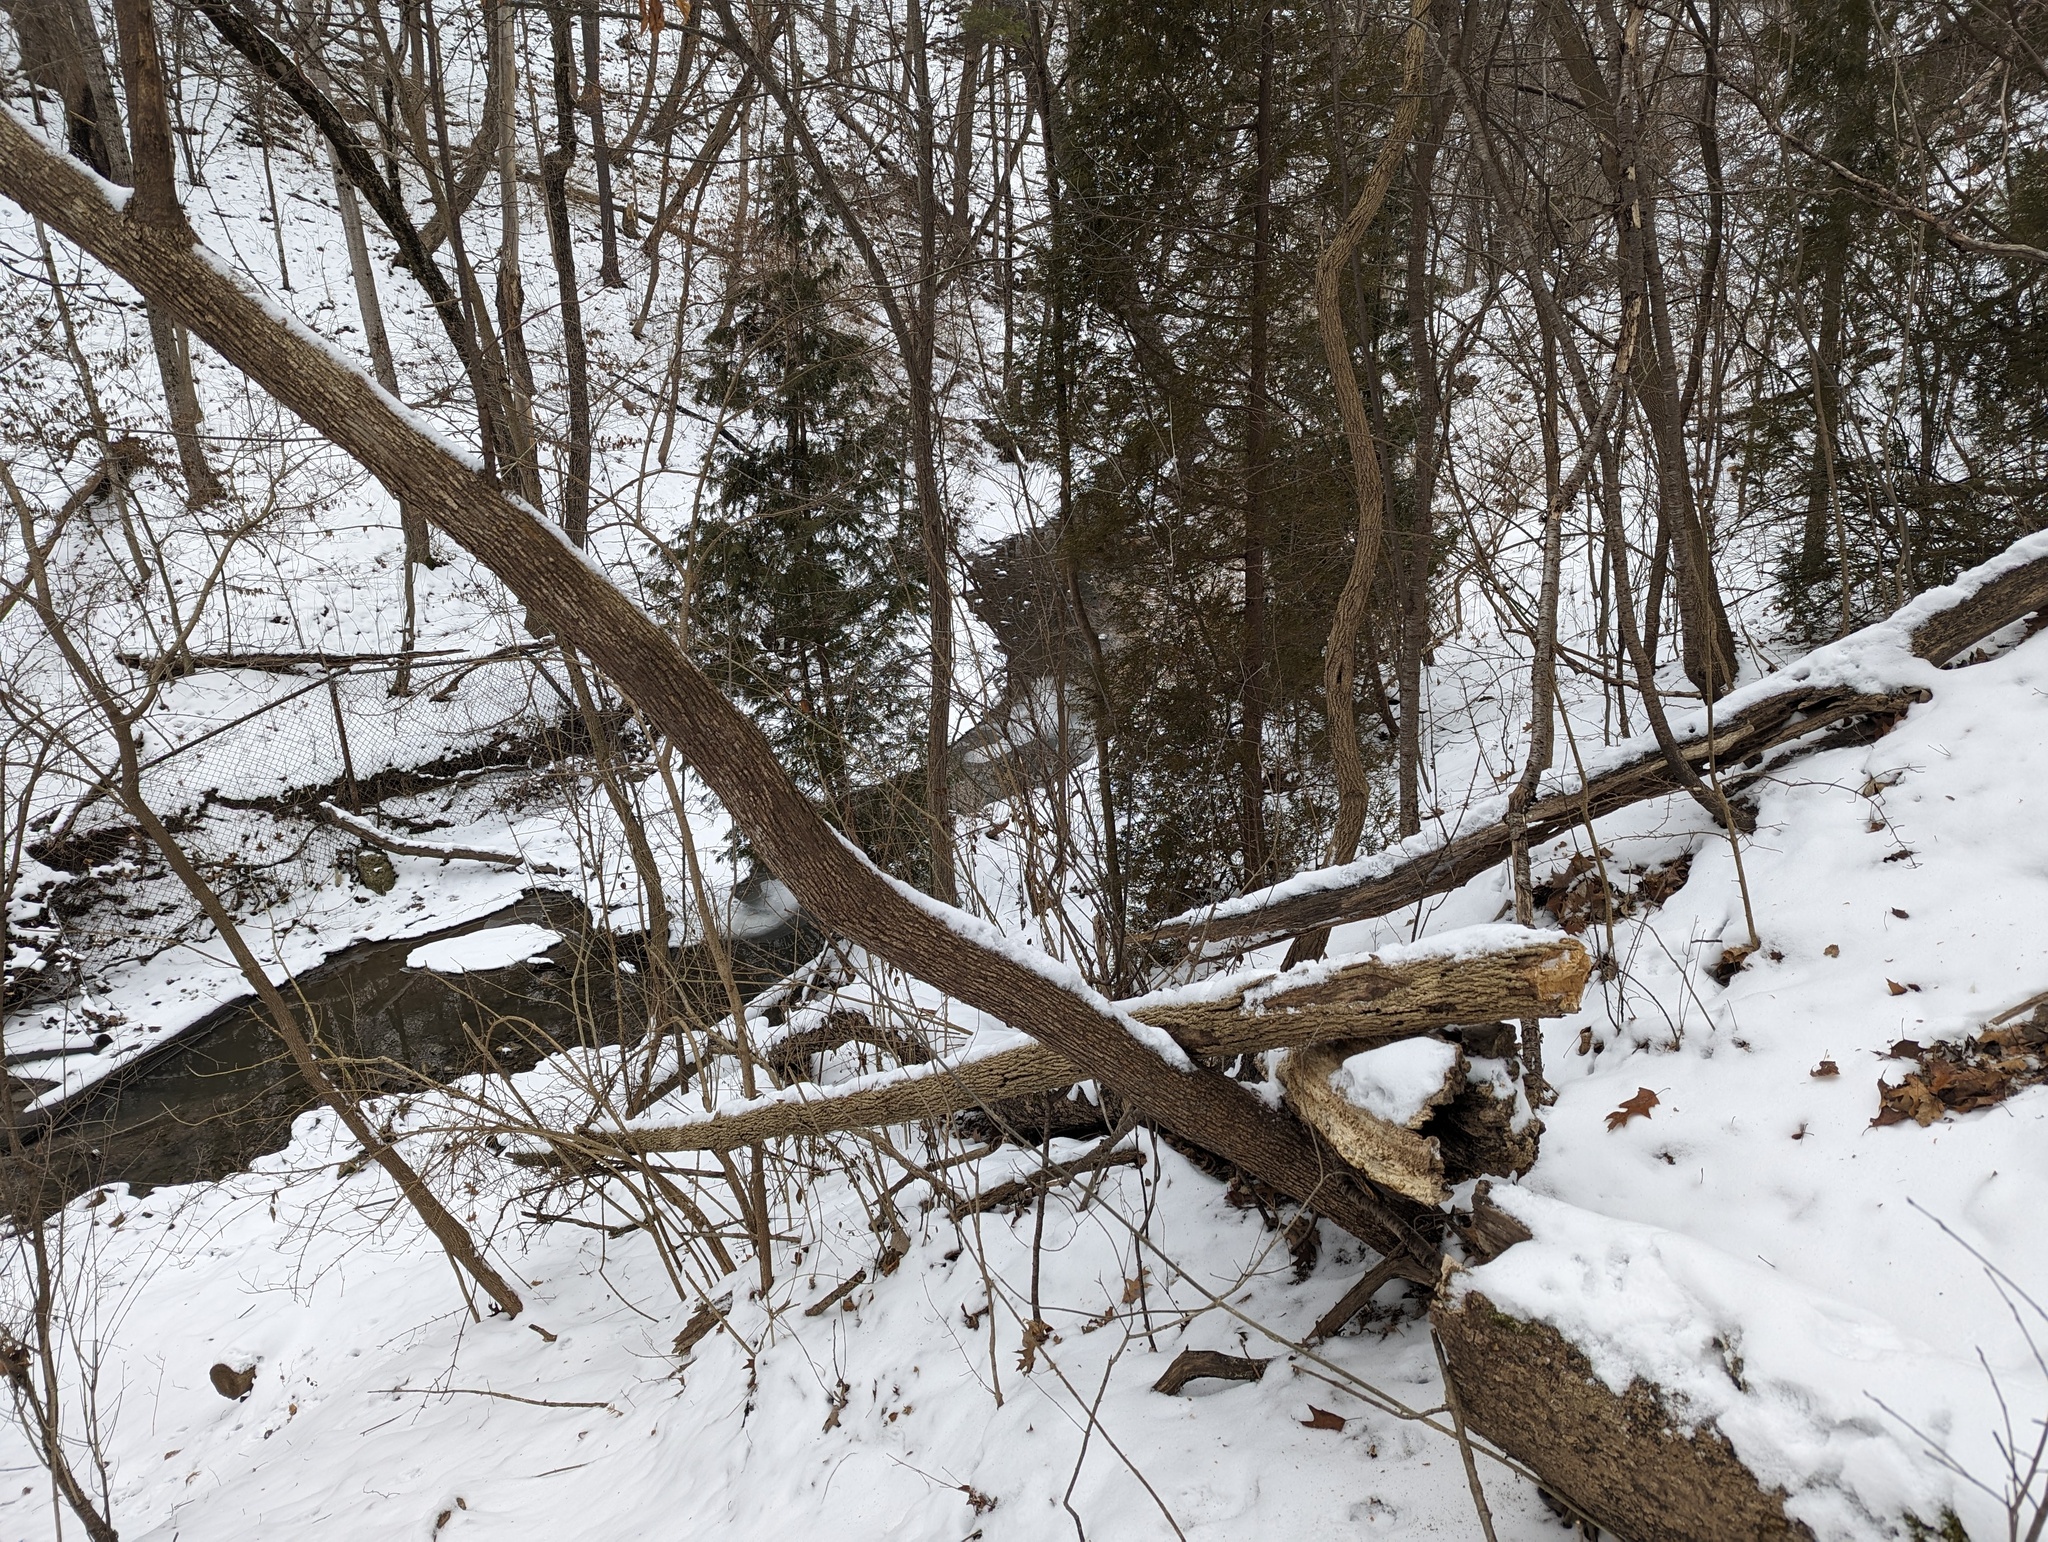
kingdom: Plantae
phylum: Tracheophyta
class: Pinopsida
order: Pinales
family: Cupressaceae
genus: Thuja
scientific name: Thuja occidentalis
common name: Northern white-cedar
